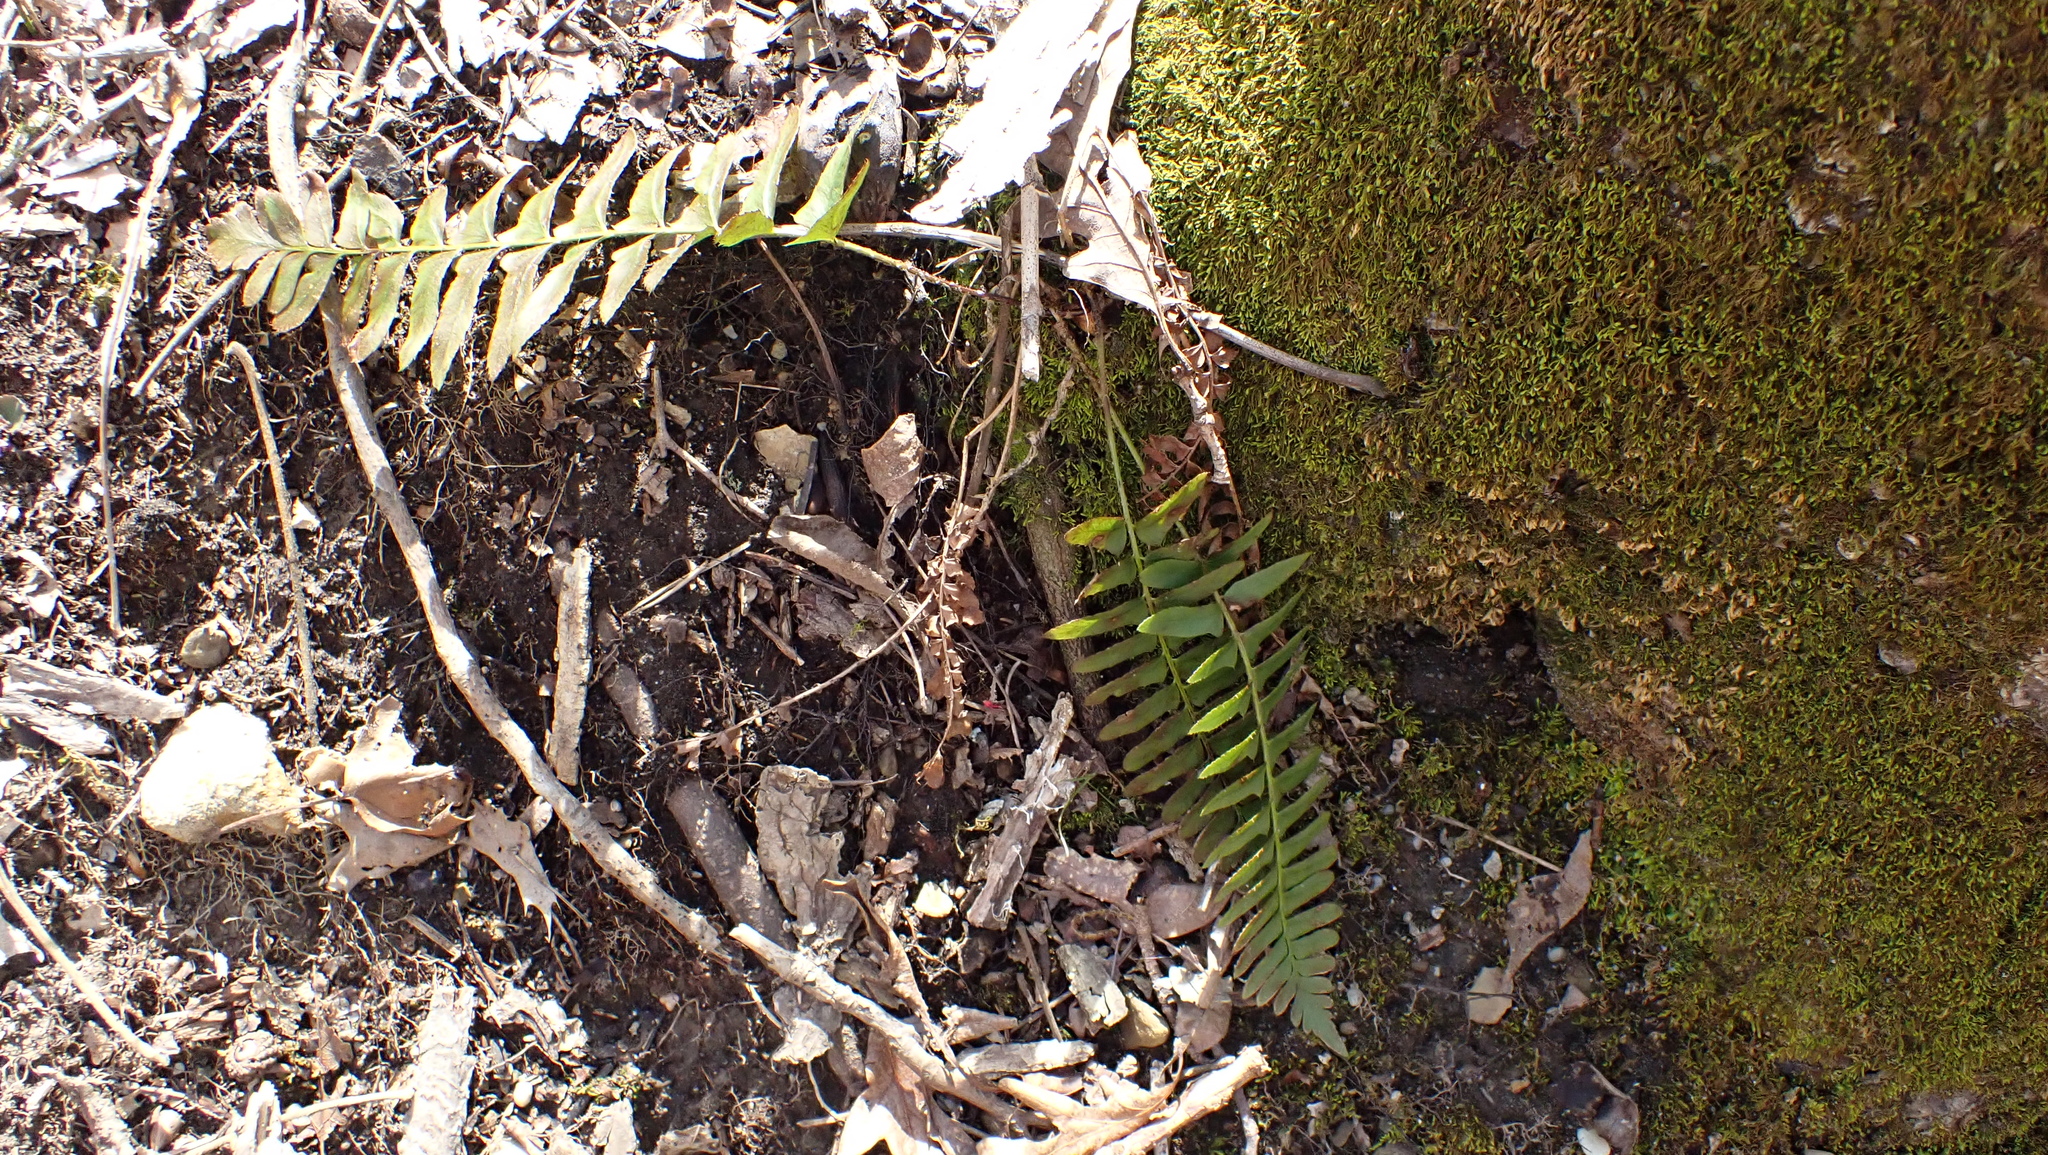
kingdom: Plantae
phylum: Tracheophyta
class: Polypodiopsida
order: Polypodiales
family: Dryopteridaceae
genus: Polystichum
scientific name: Polystichum acrostichoides
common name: Christmas fern
